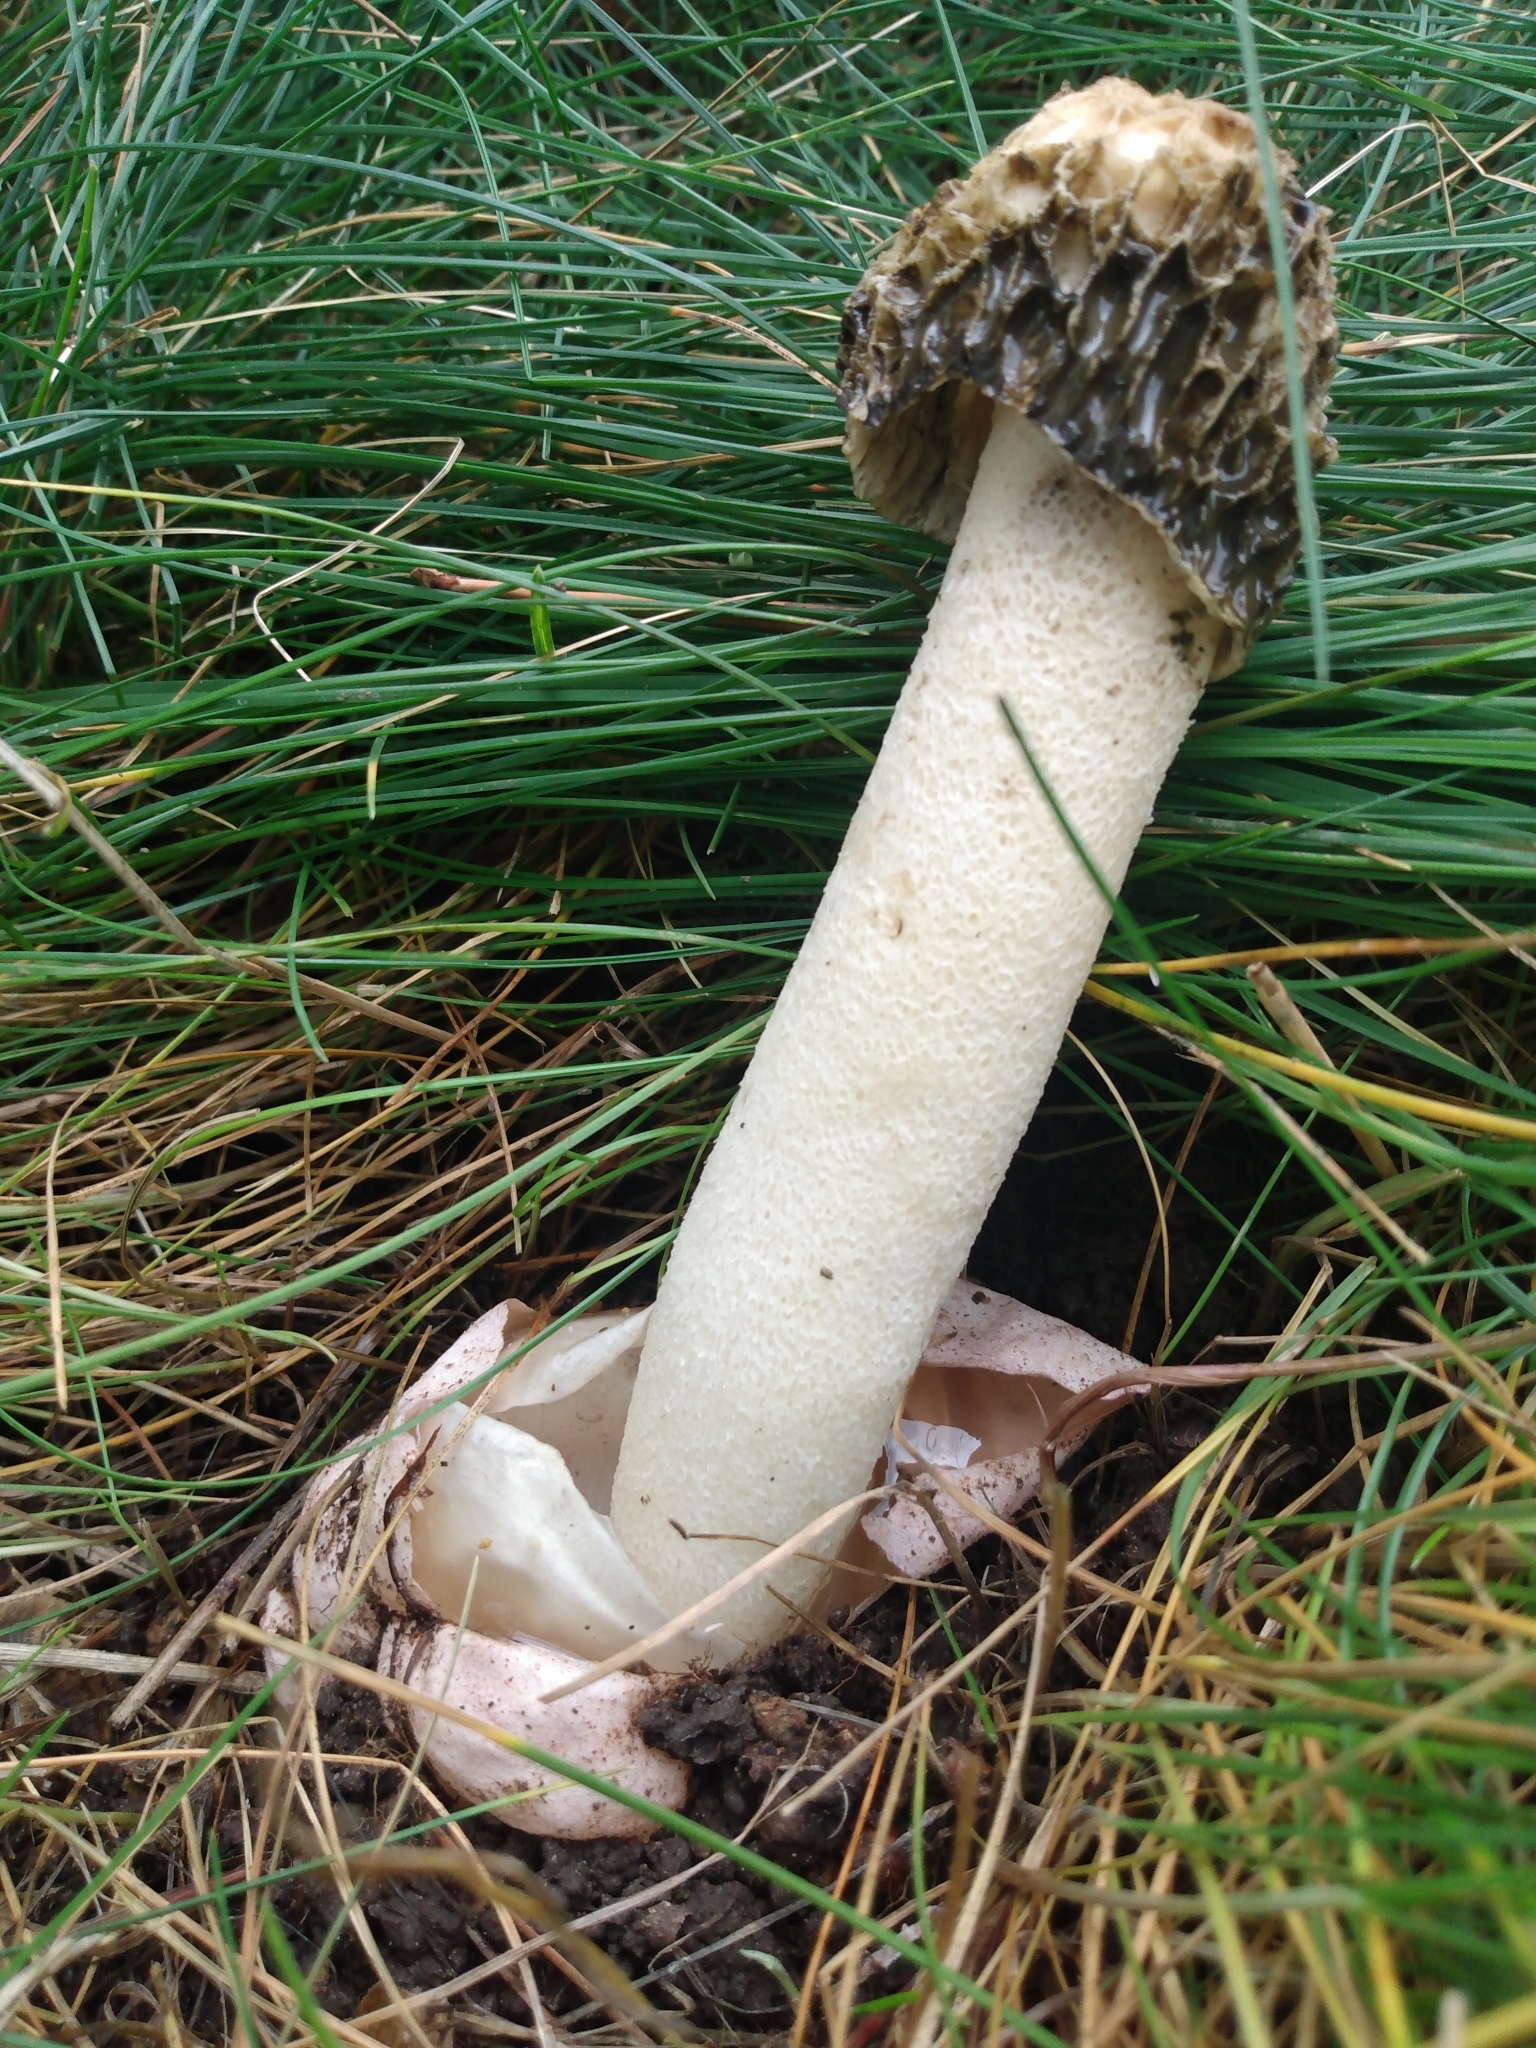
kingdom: Fungi
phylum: Basidiomycota
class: Agaricomycetes
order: Phallales
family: Phallaceae
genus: Phallus
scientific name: Phallus hadriani
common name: Sand stinkhorn
